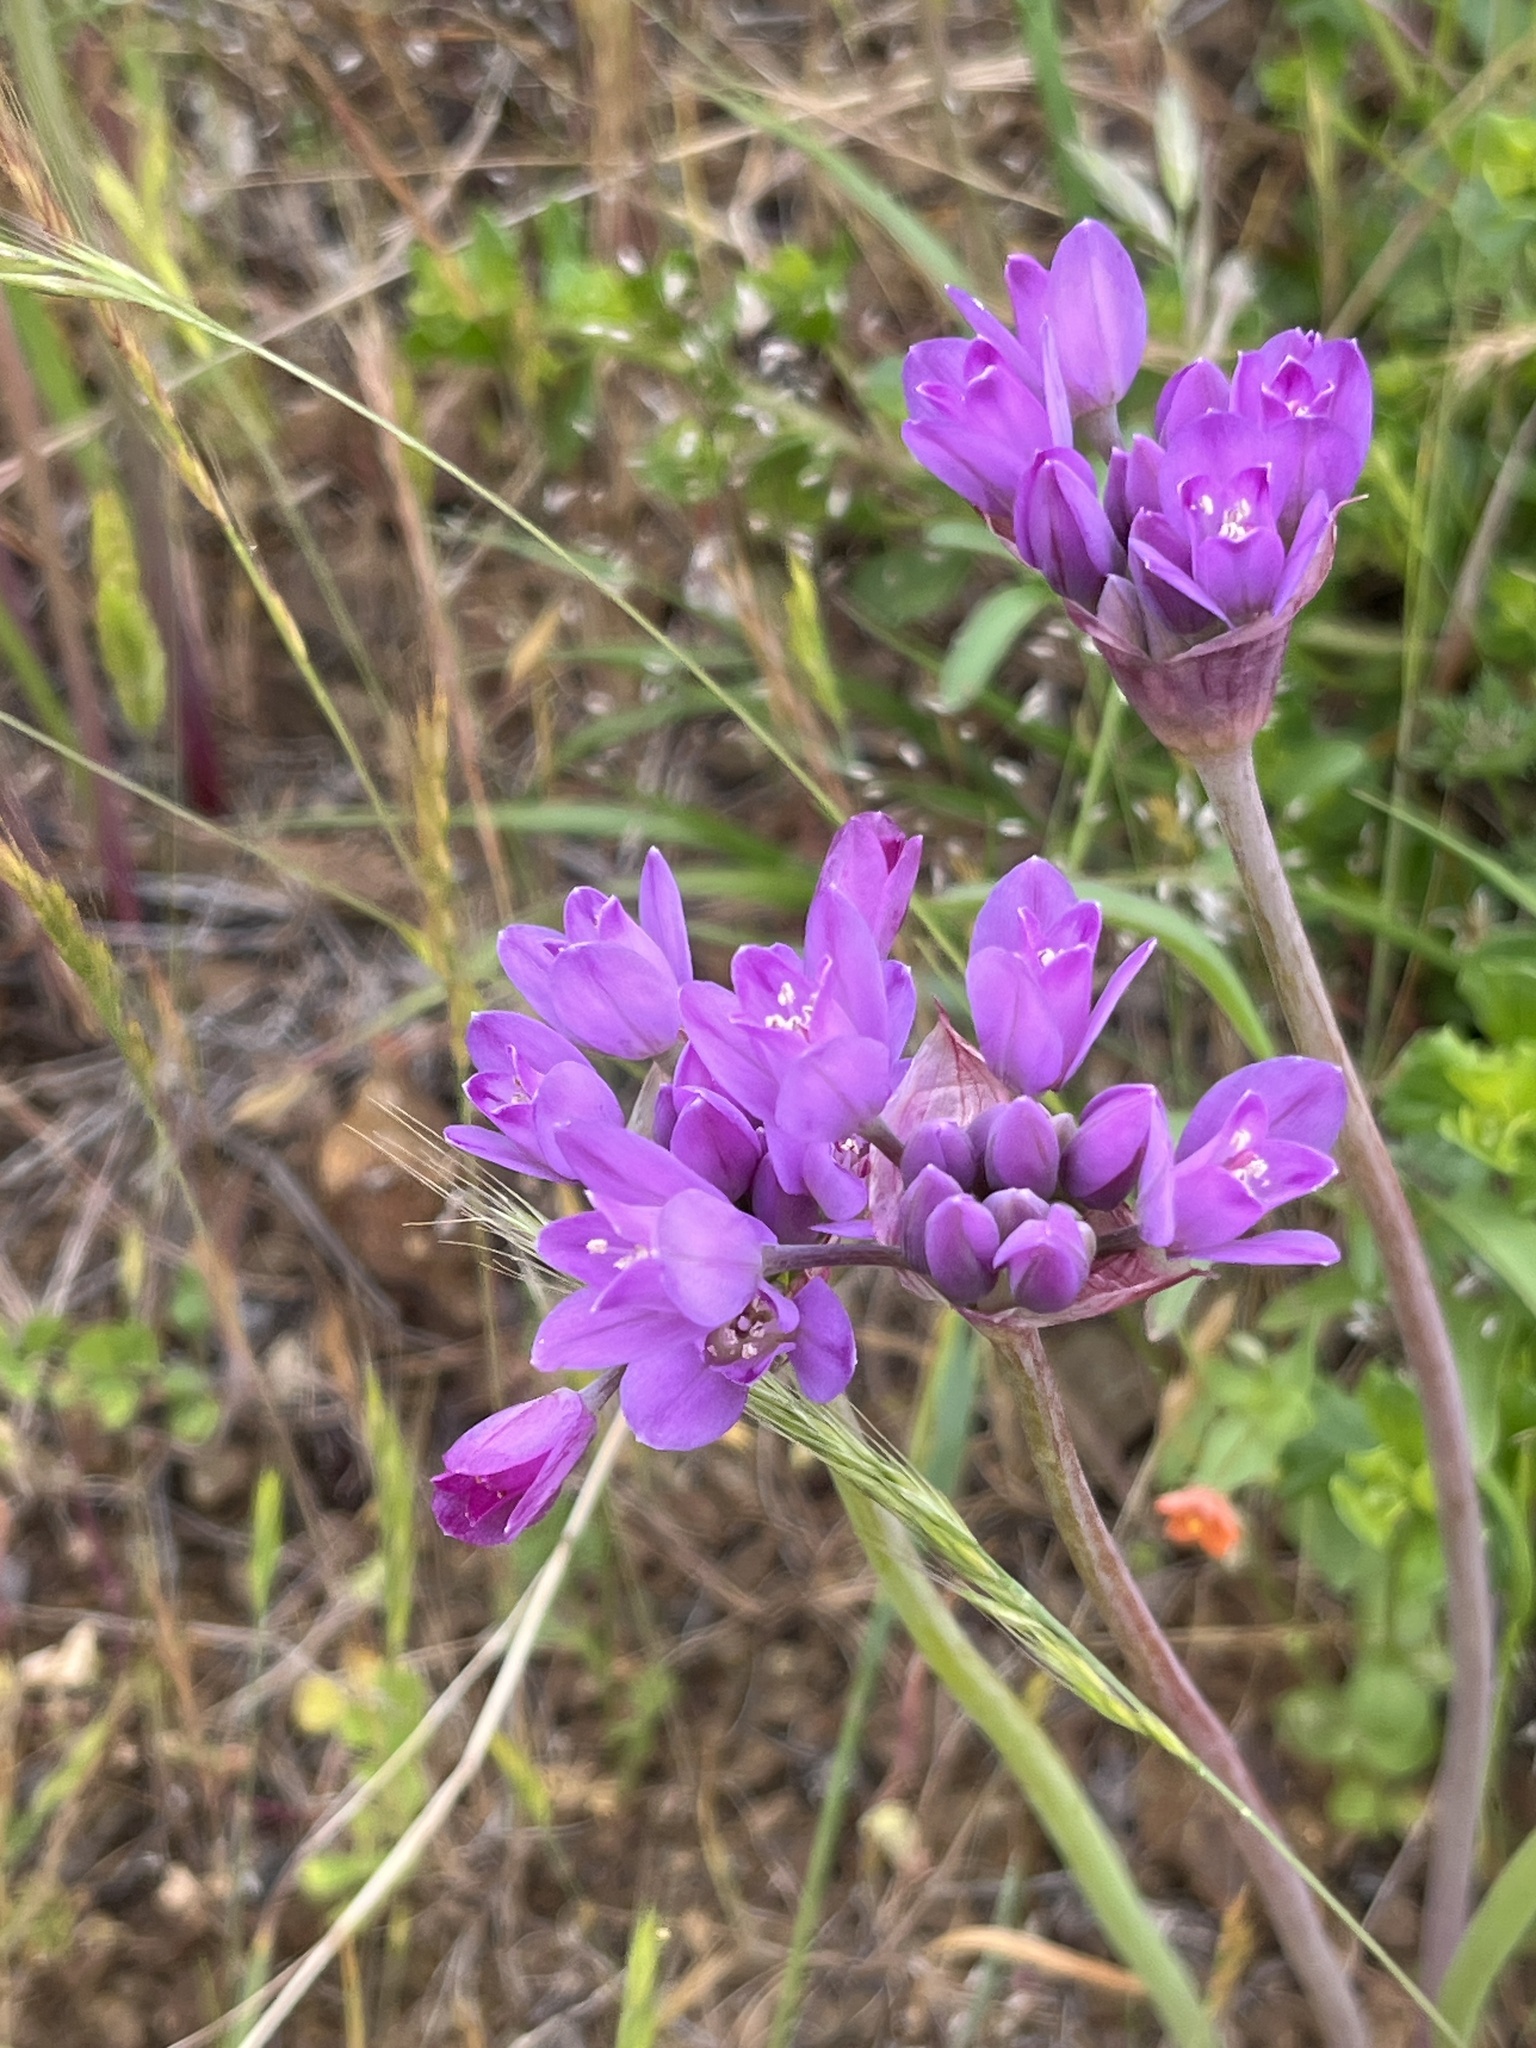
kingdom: Plantae
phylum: Tracheophyta
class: Liliopsida
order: Asparagales
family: Amaryllidaceae
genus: Allium
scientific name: Allium dichlamydeum
